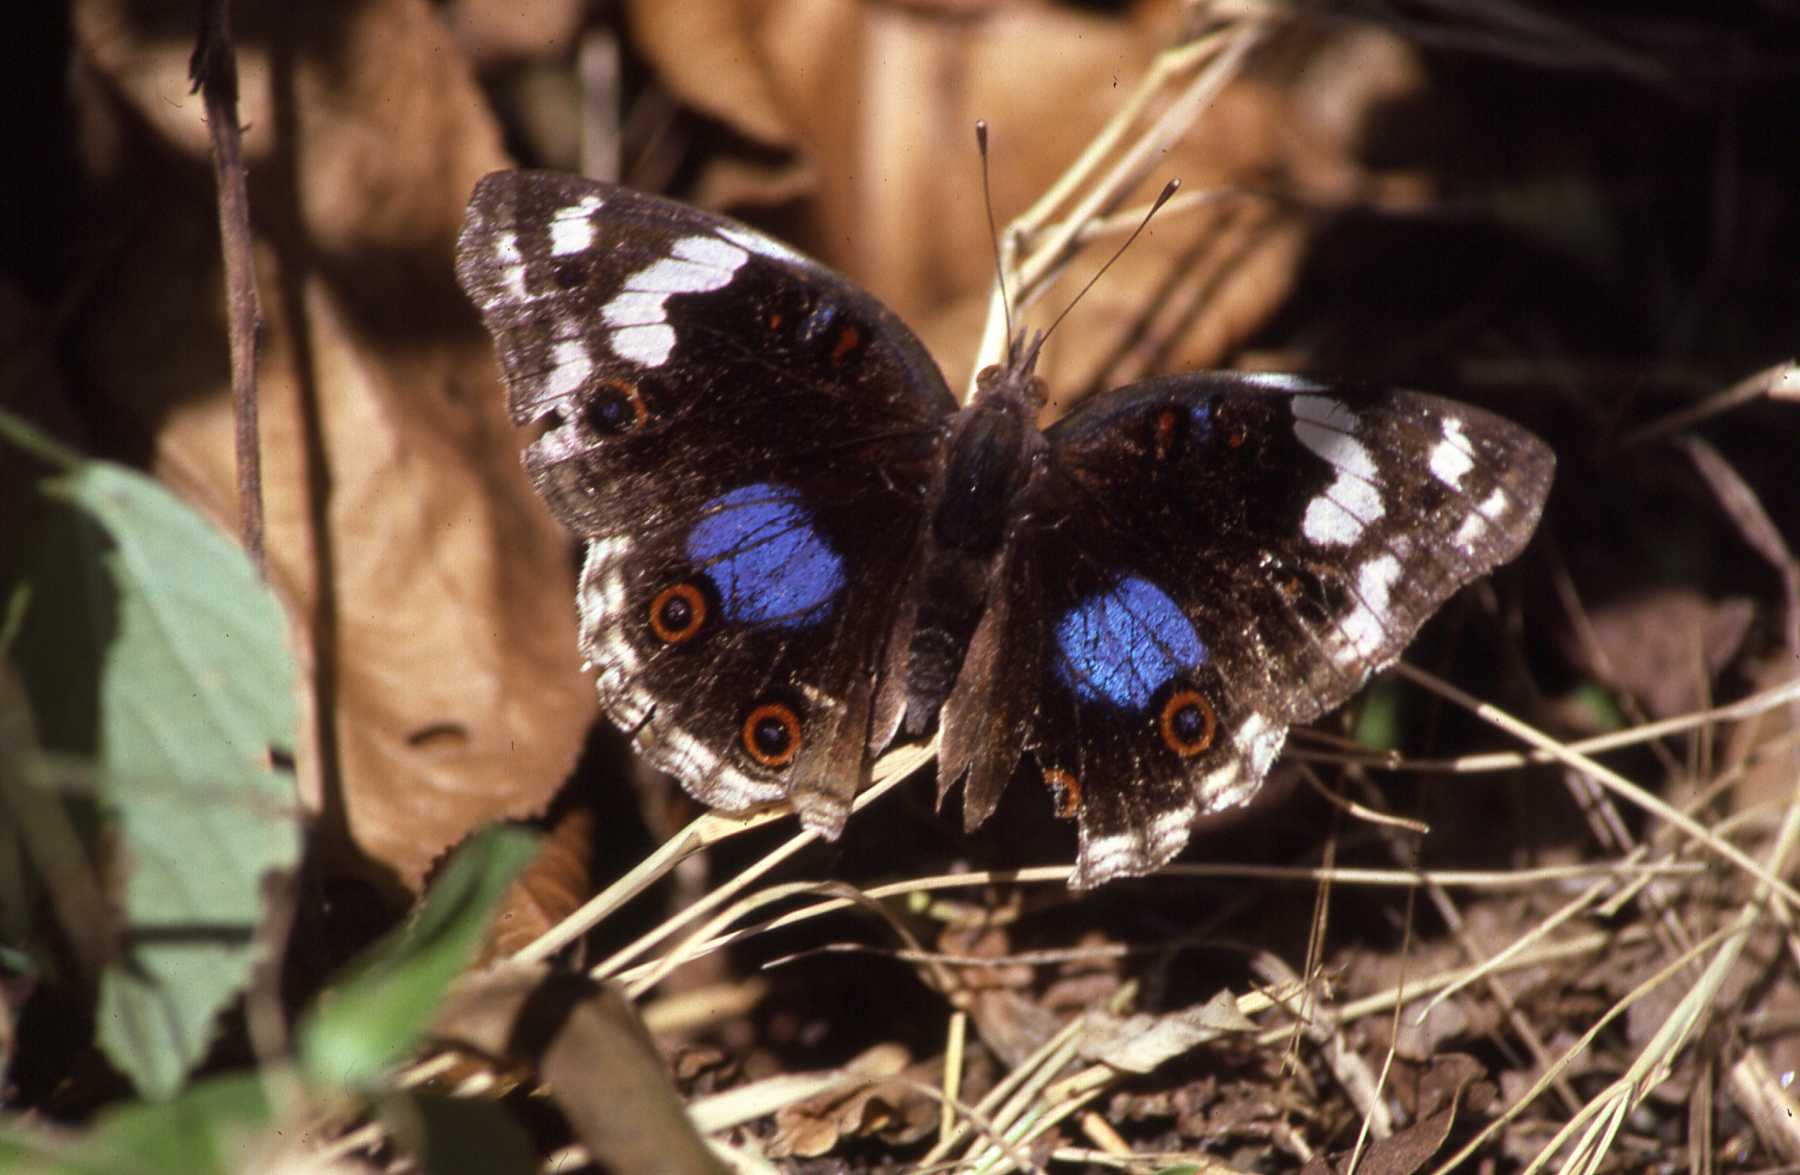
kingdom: Animalia
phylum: Arthropoda
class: Insecta
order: Lepidoptera
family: Nymphalidae
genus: Junonia
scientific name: Junonia oenone
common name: Dark blue pansy
